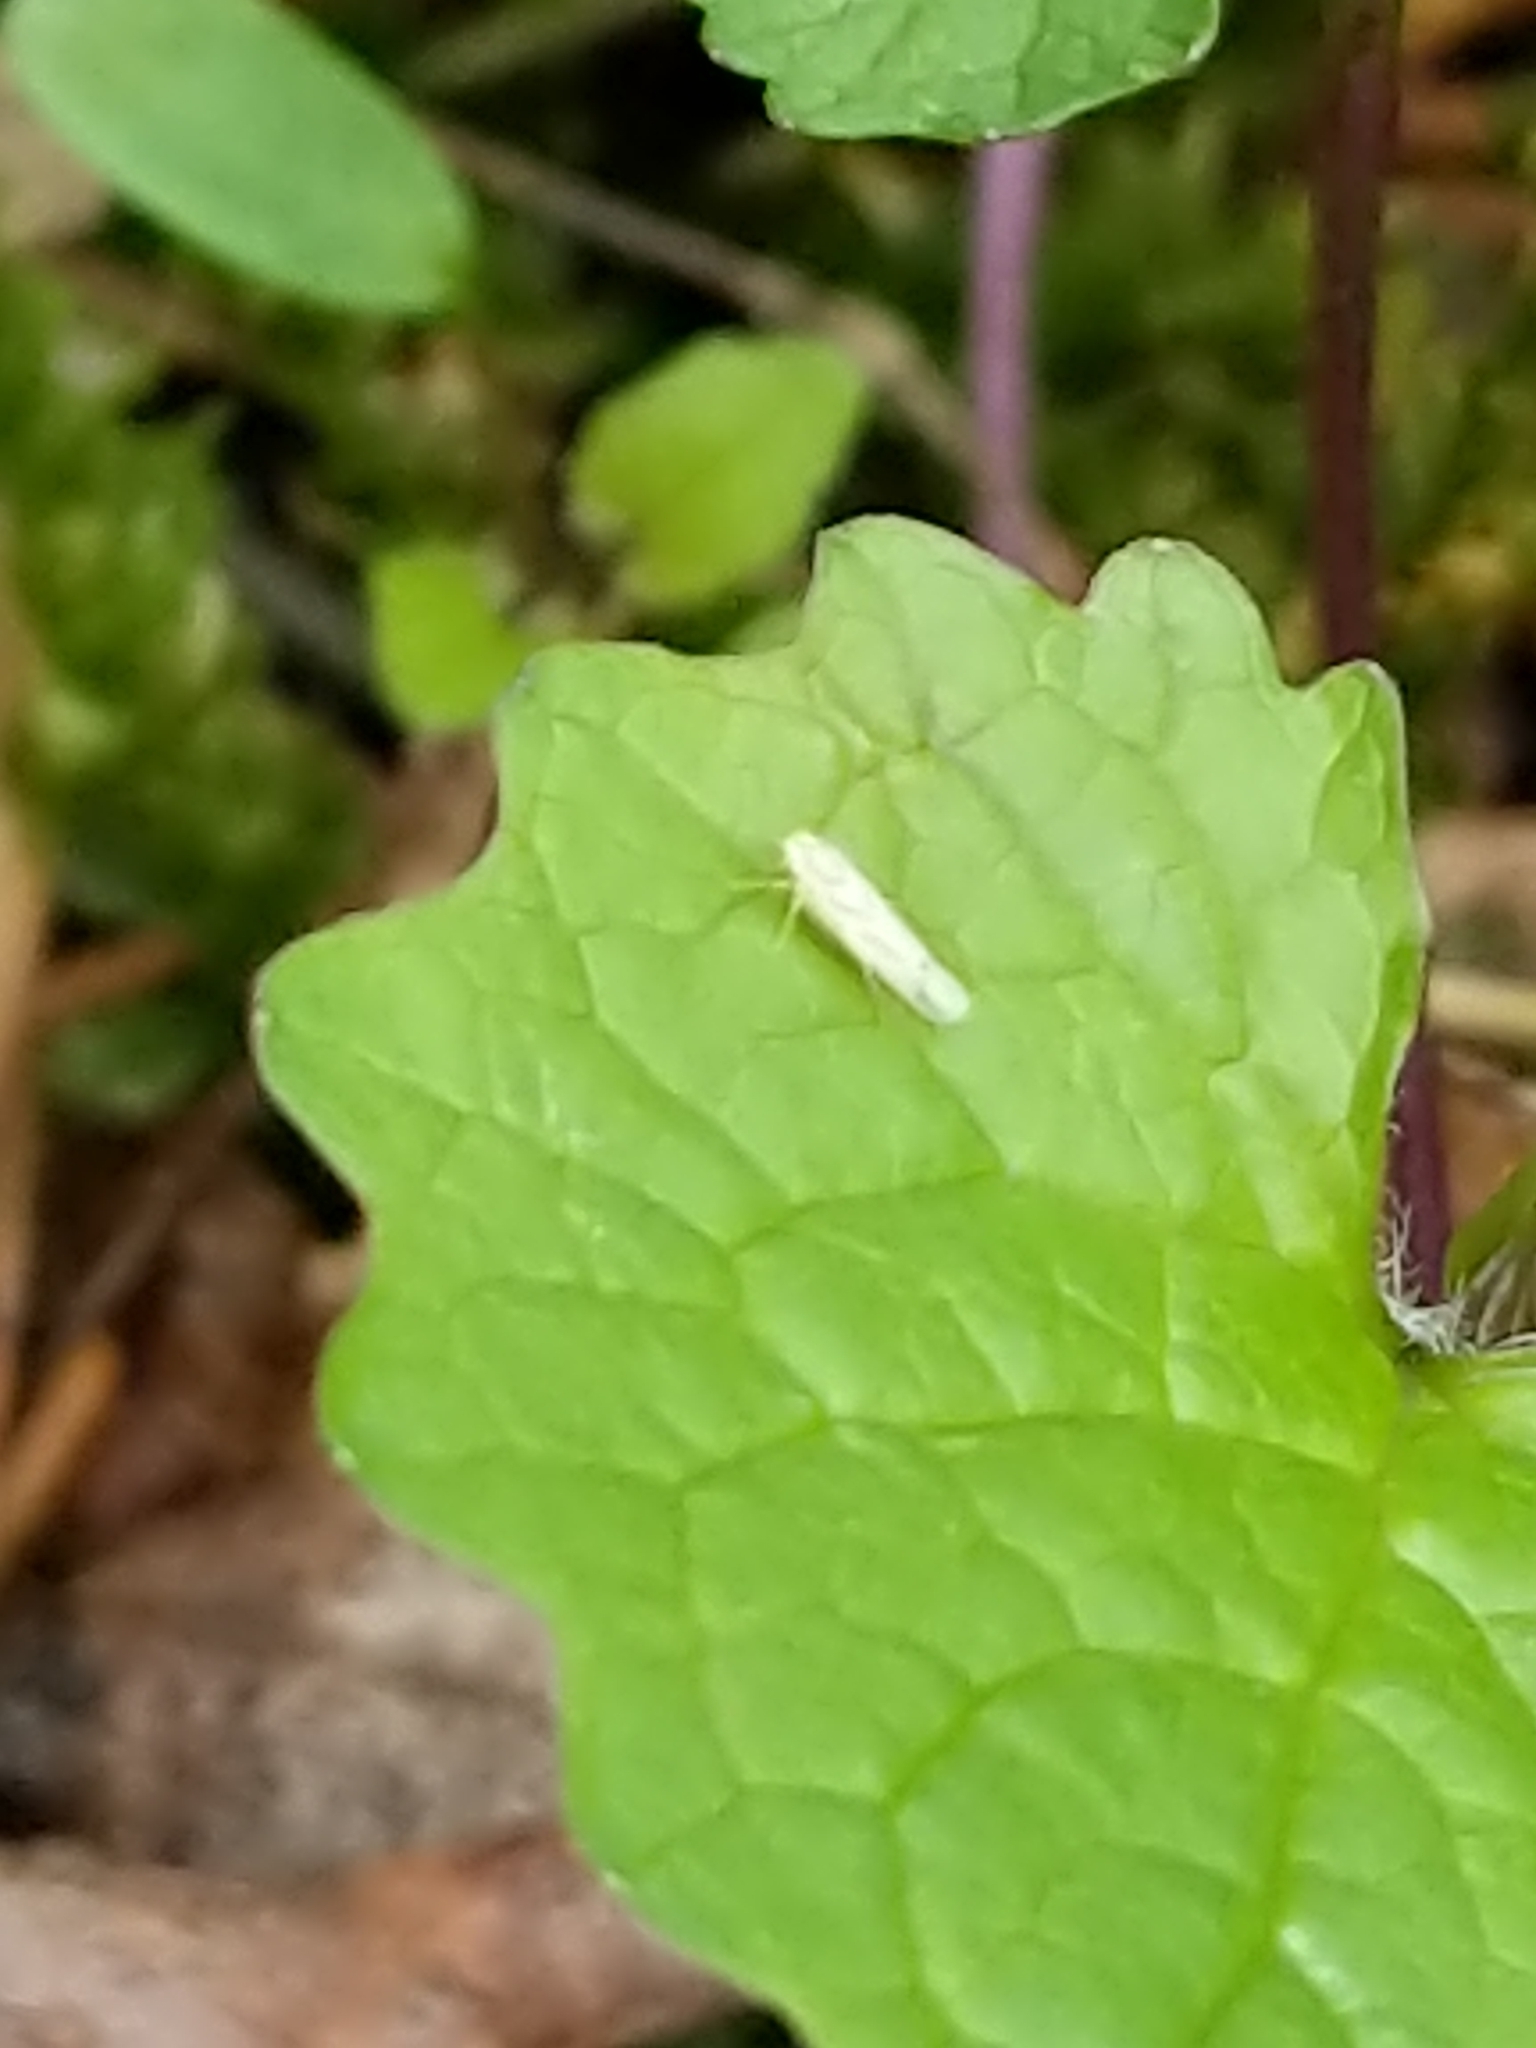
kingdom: Animalia
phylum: Arthropoda
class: Insecta
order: Hemiptera
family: Cicadellidae
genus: Dikrella
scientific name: Dikrella cruentata
